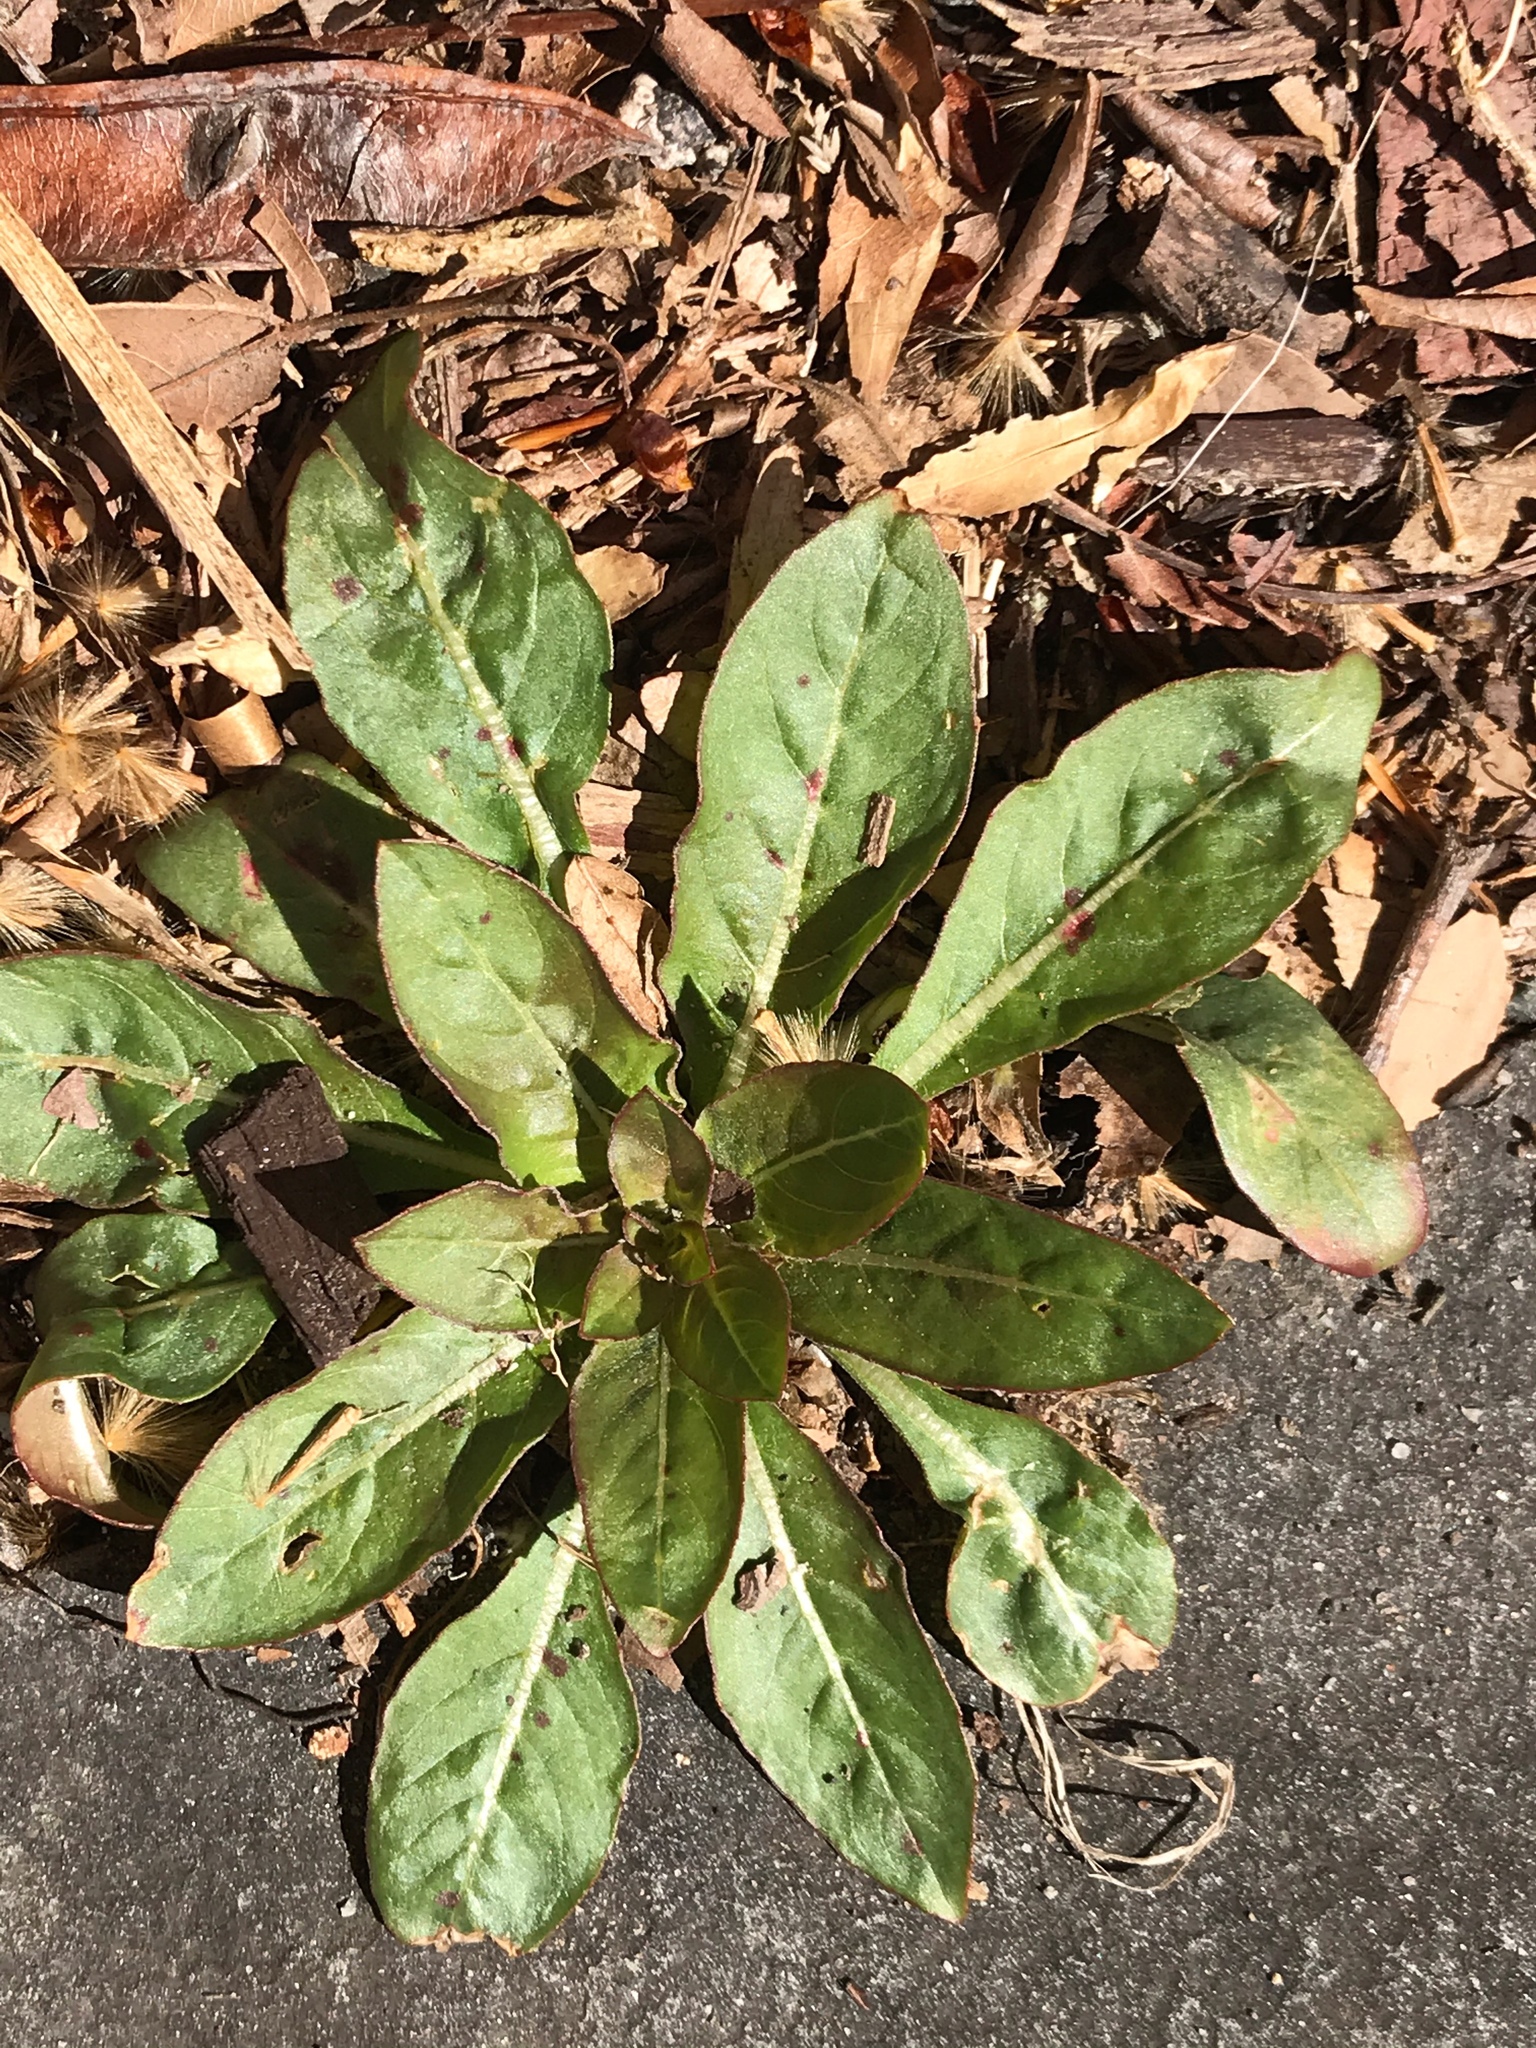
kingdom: Plantae
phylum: Tracheophyta
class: Magnoliopsida
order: Myrtales
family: Onagraceae
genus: Oenothera
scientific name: Oenothera biennis
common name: Common evening-primrose
